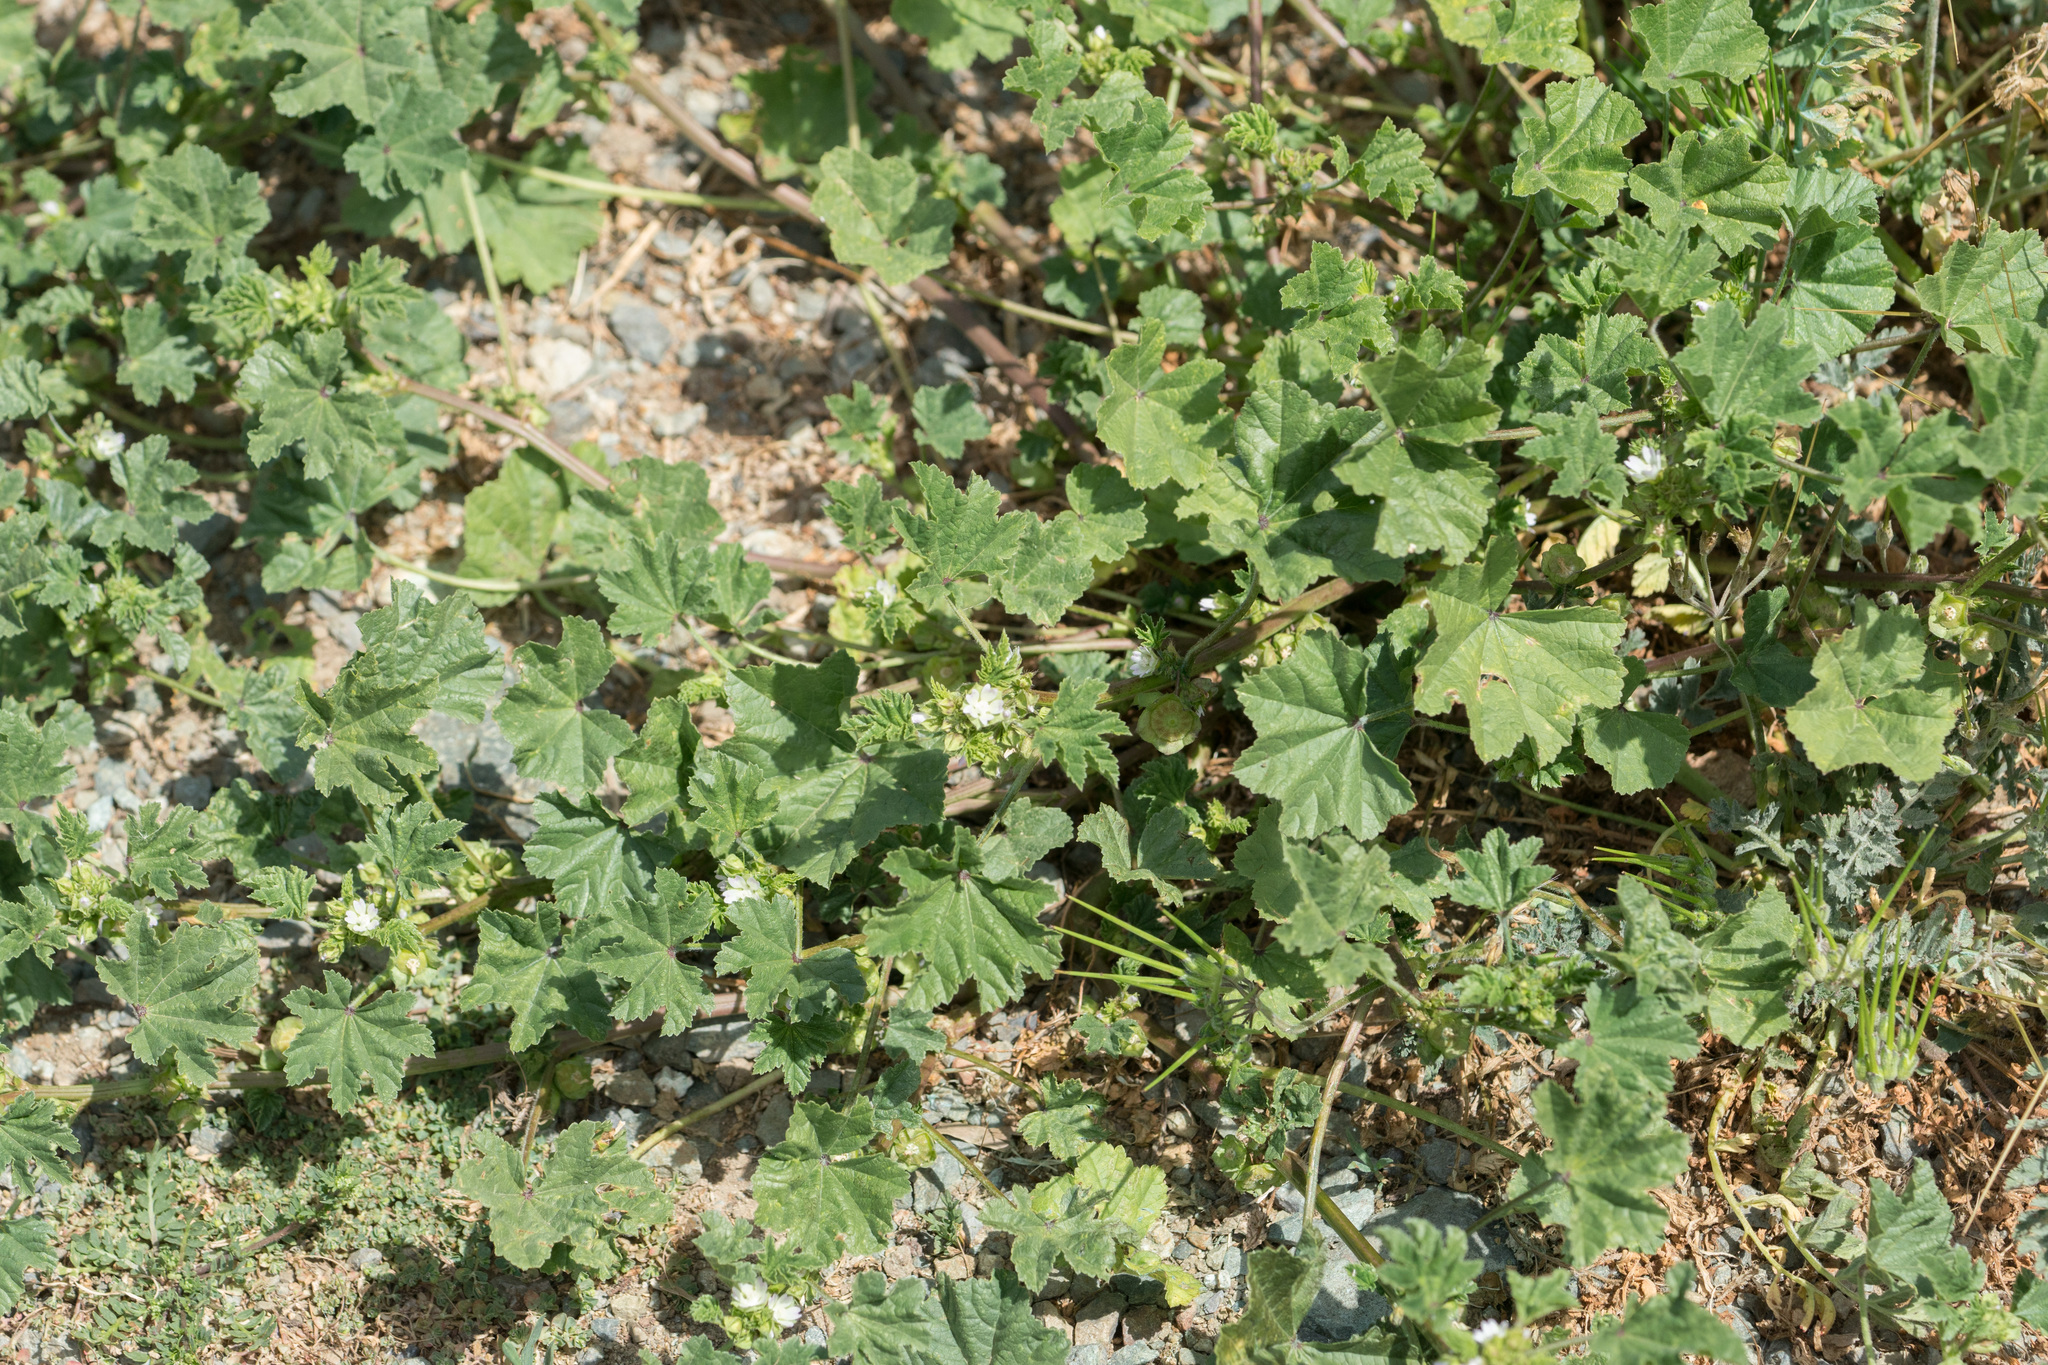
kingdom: Plantae
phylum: Tracheophyta
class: Magnoliopsida
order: Malvales
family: Malvaceae
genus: Malva
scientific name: Malva parviflora
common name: Least mallow
